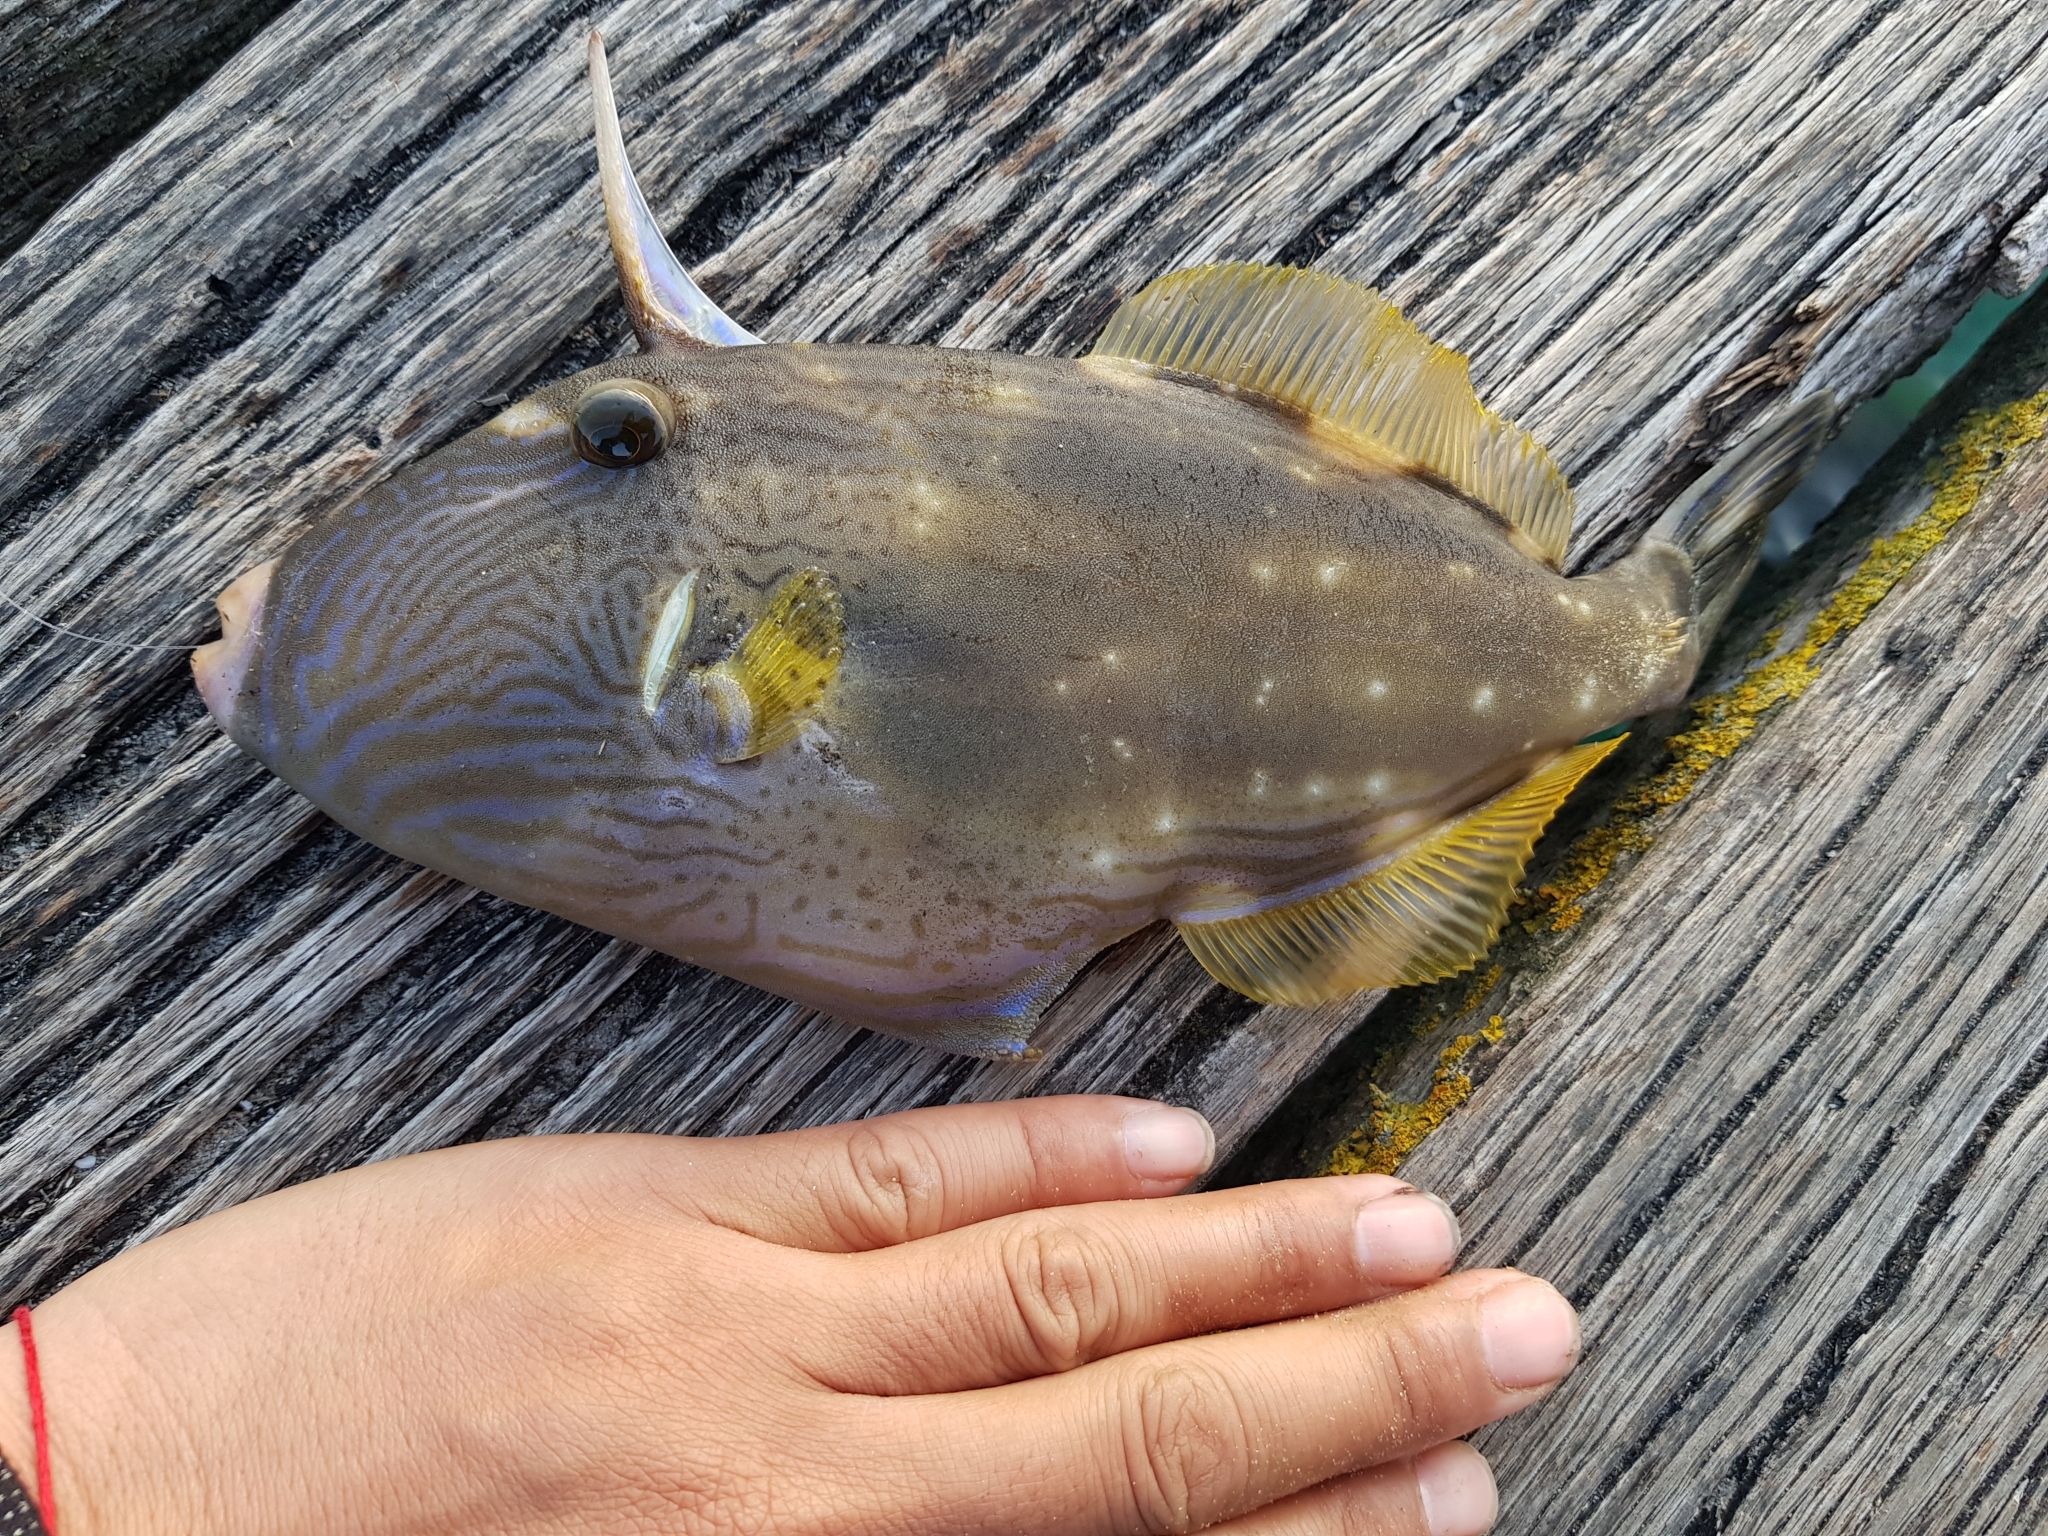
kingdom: Animalia
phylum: Chordata
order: Tetraodontiformes
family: Monacanthidae
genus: Meuschenia
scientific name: Meuschenia freycineti
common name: Freycinet's leatherjacket
